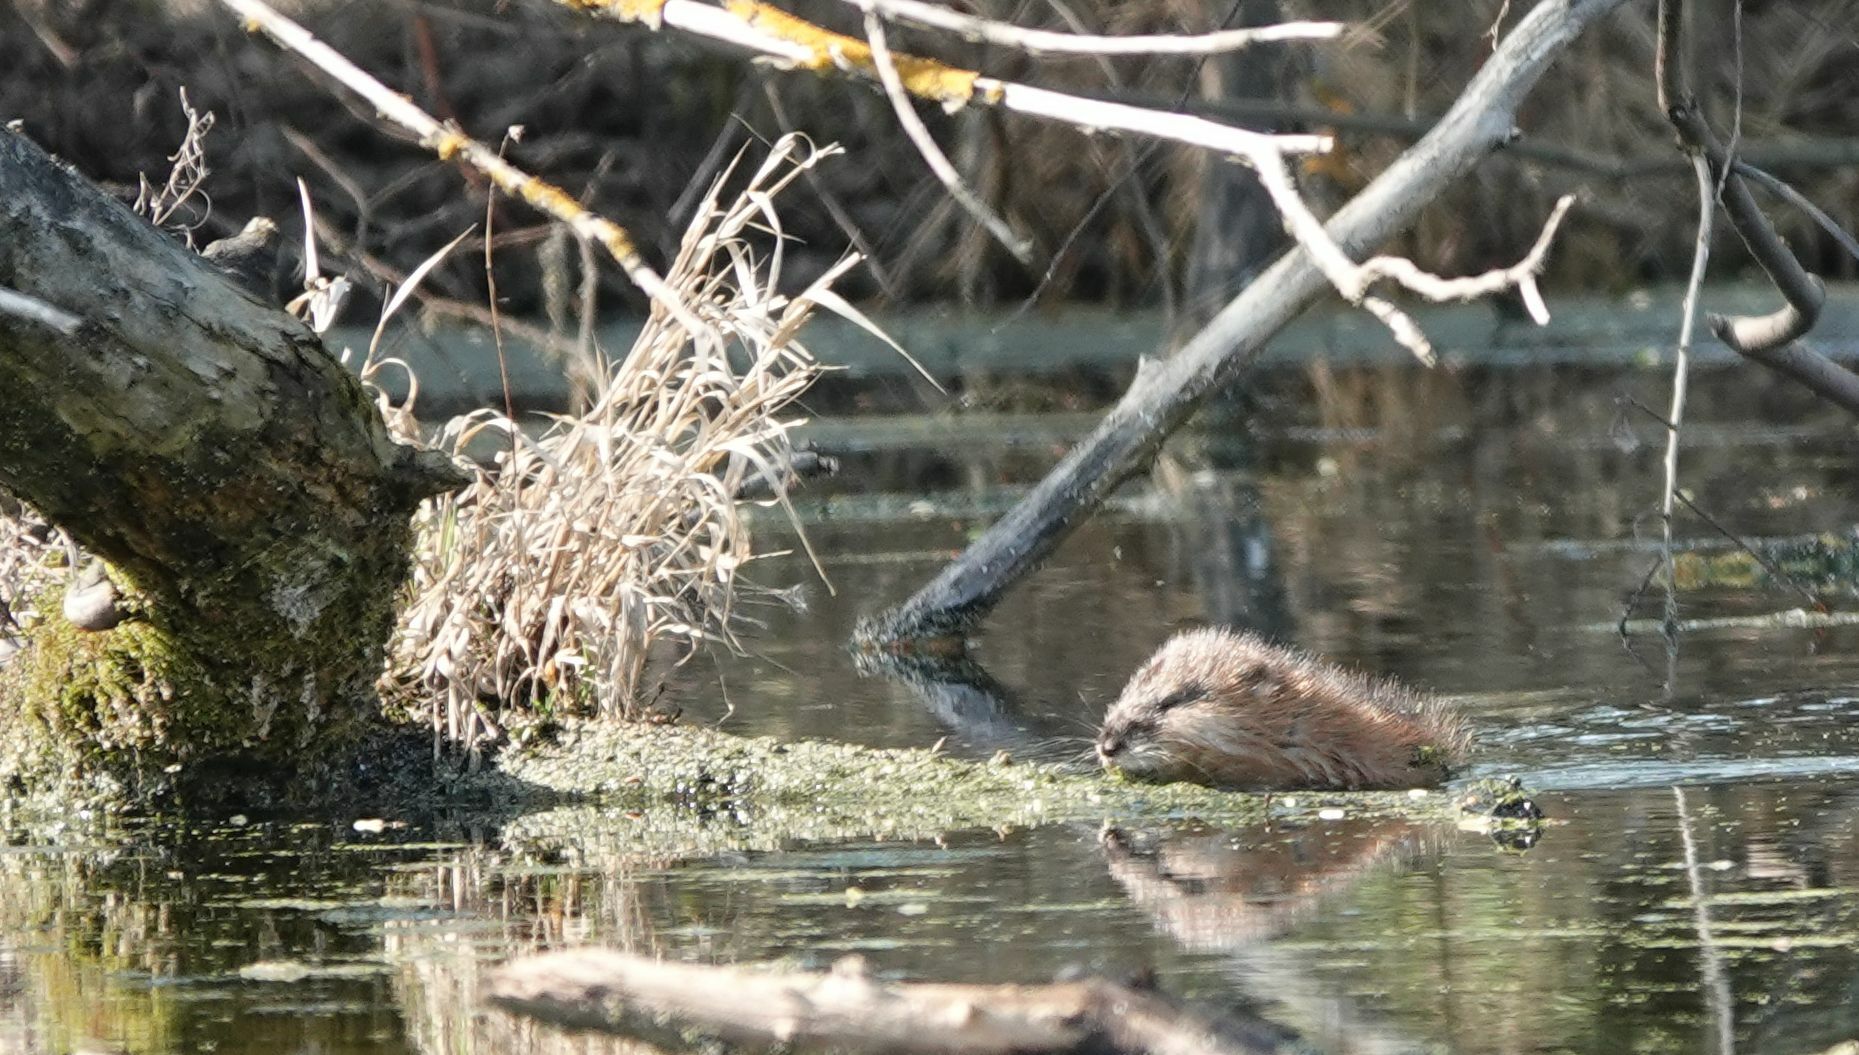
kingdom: Animalia
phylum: Chordata
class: Mammalia
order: Rodentia
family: Cricetidae
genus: Ondatra
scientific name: Ondatra zibethicus
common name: Muskrat
